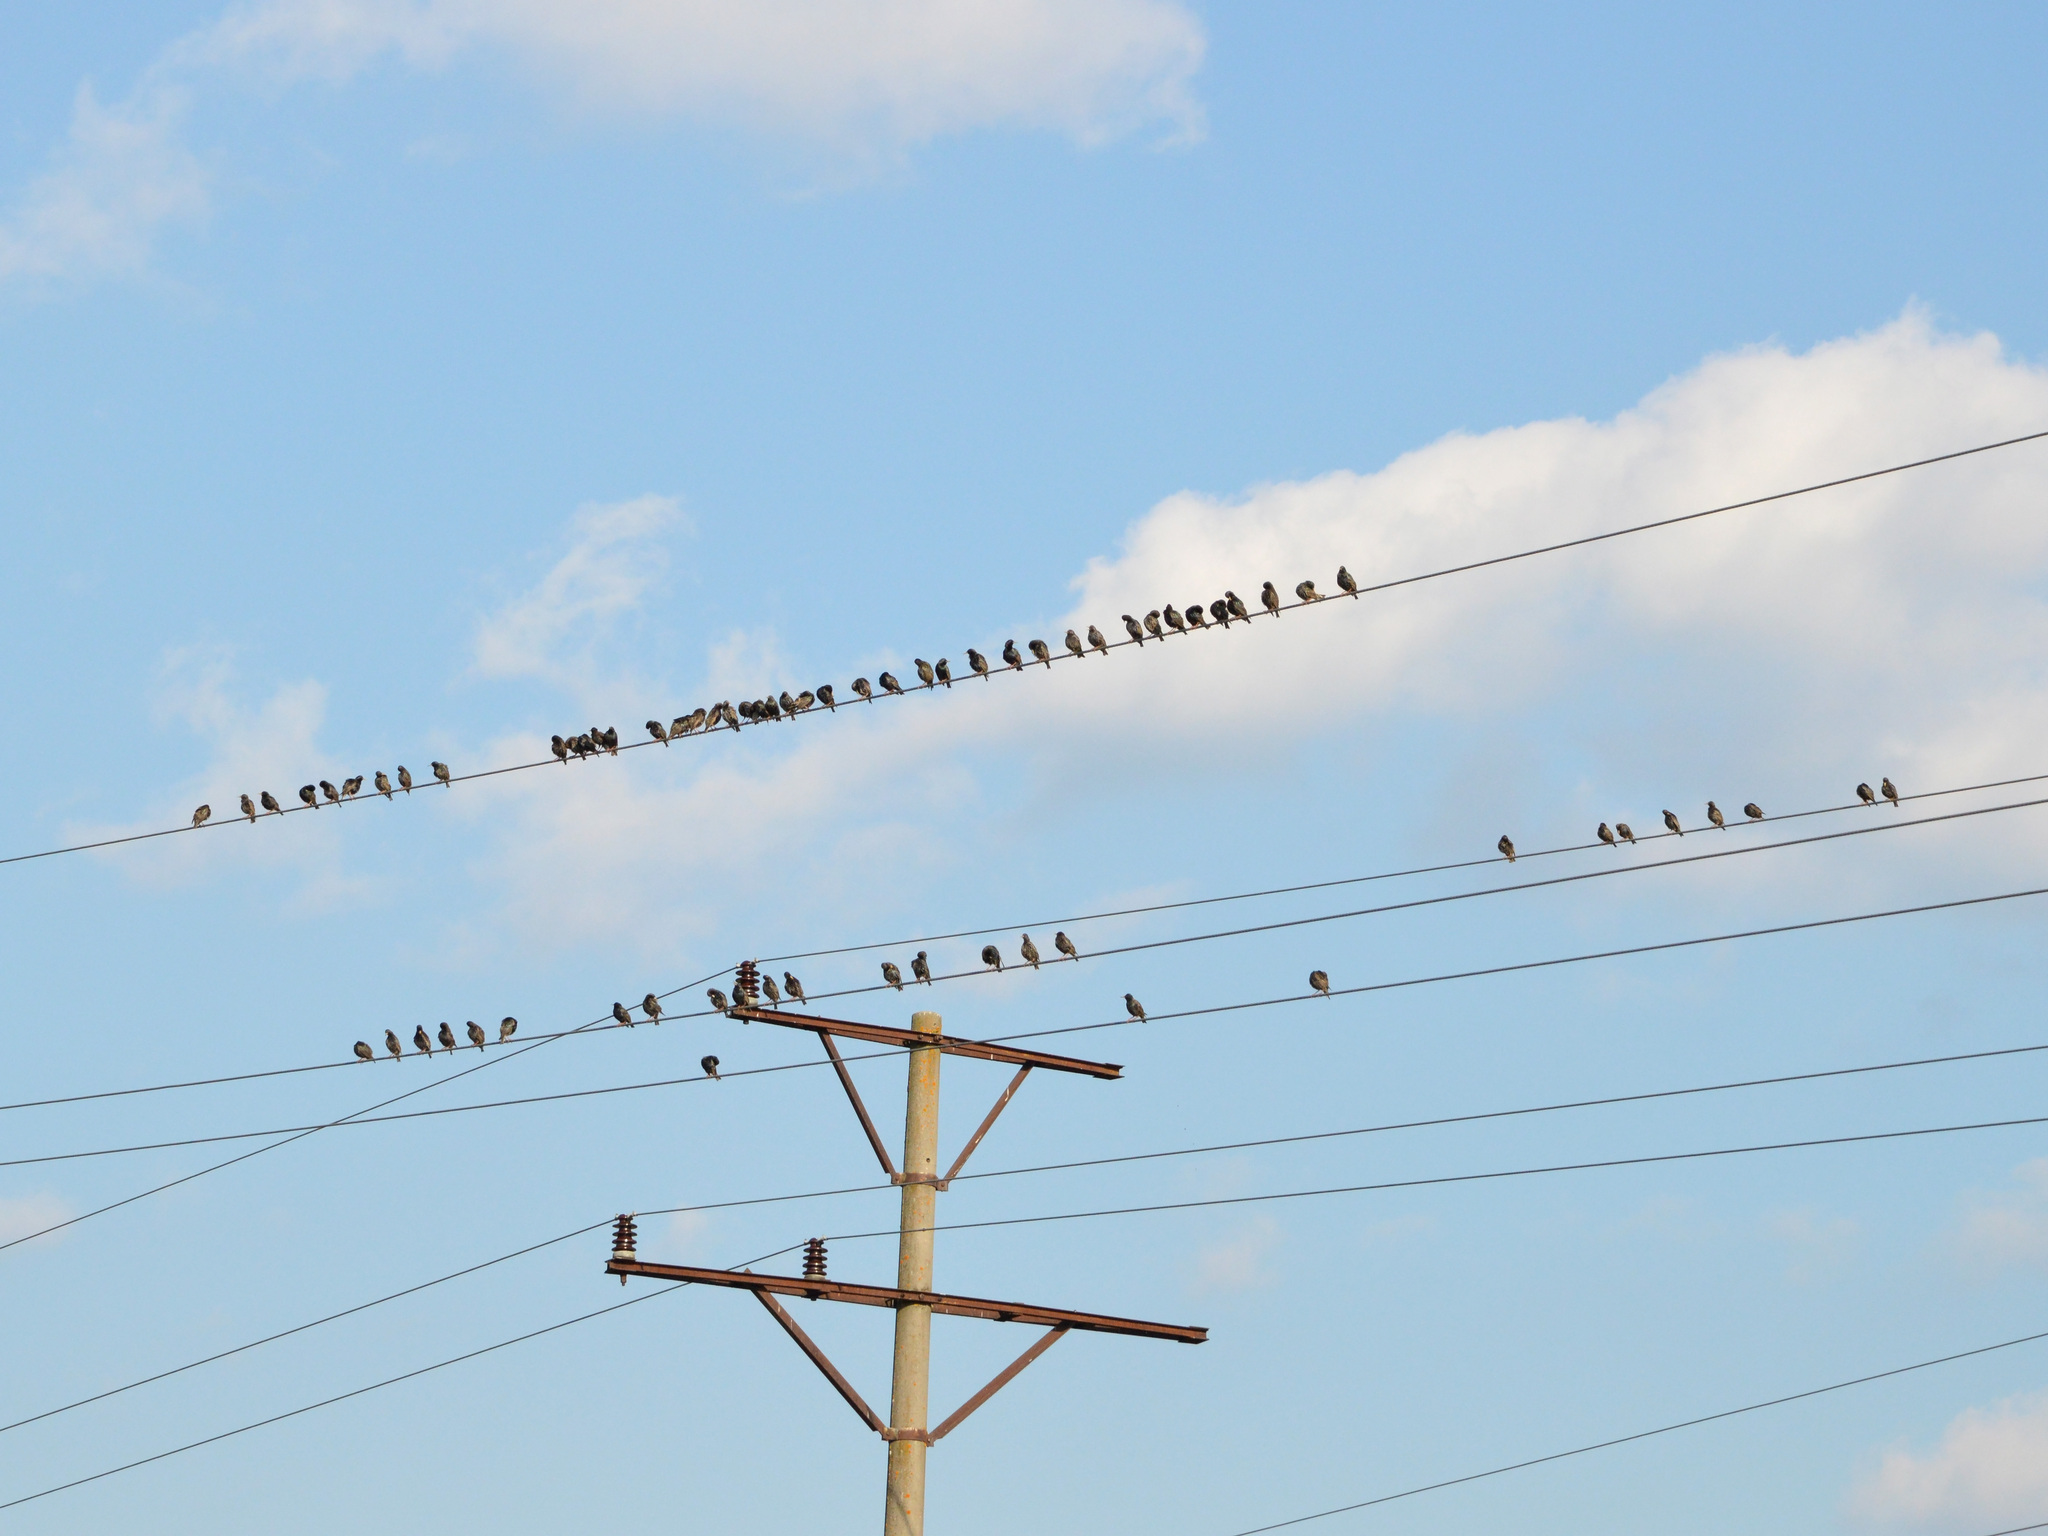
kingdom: Animalia
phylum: Chordata
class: Aves
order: Passeriformes
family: Sturnidae
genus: Sturnus
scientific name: Sturnus vulgaris
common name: Common starling
